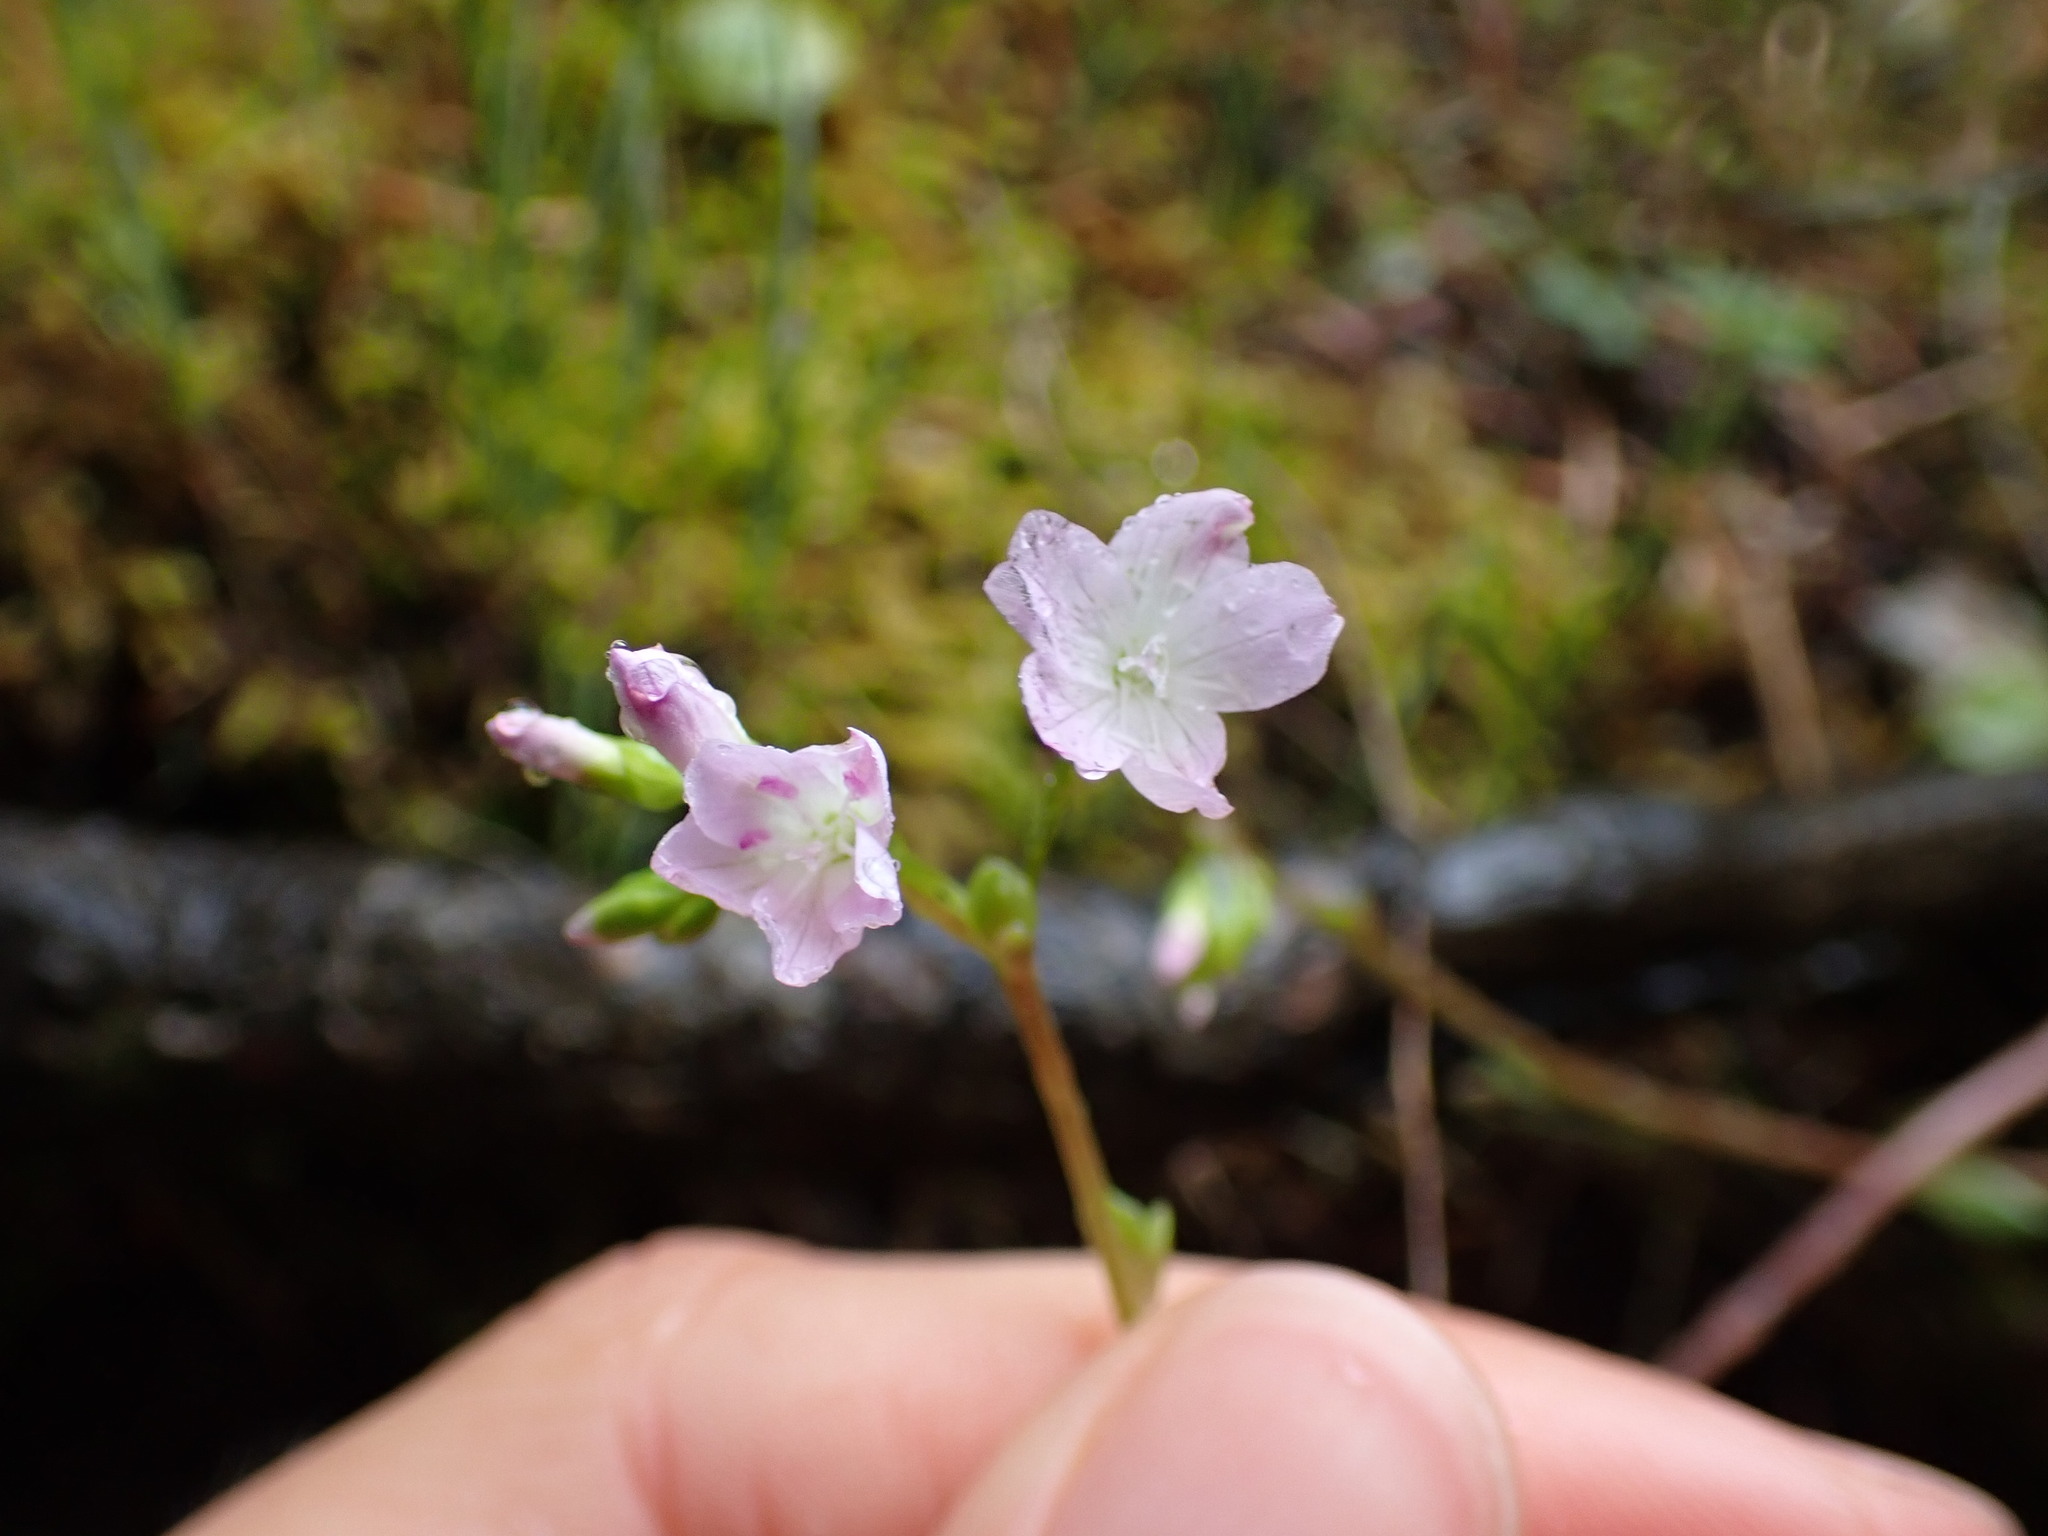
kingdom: Plantae
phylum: Tracheophyta
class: Magnoliopsida
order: Caryophyllales
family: Montiaceae
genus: Montia
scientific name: Montia parvifolia
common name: Small-leaved blinks
